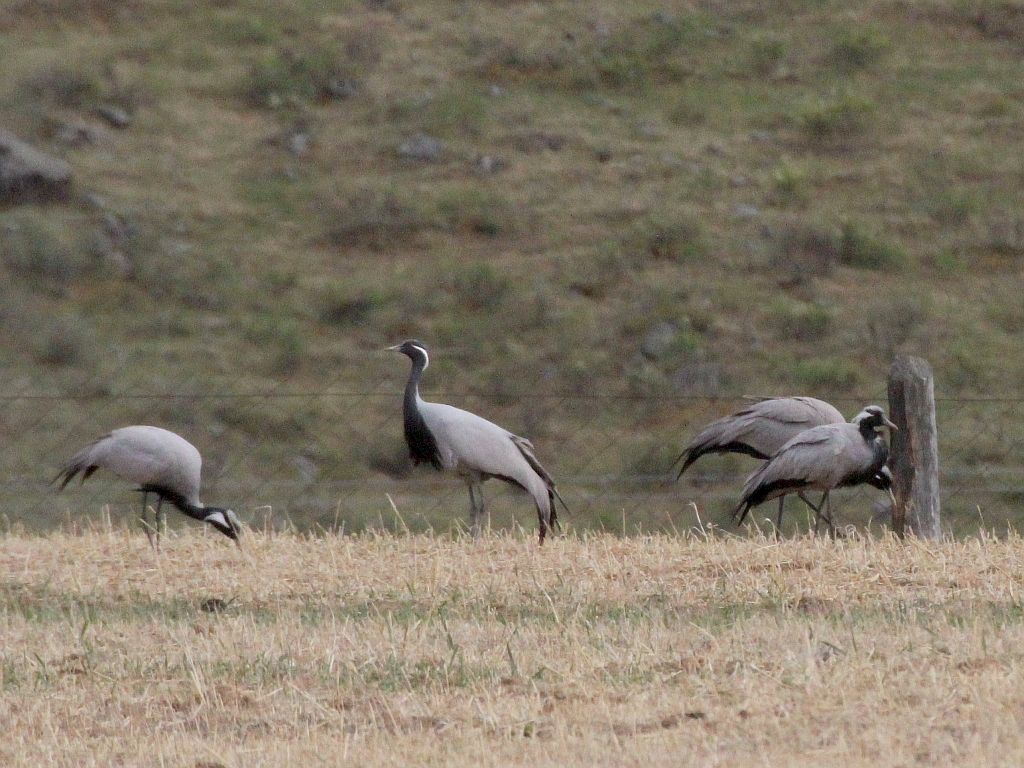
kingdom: Animalia
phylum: Chordata
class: Aves
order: Gruiformes
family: Gruidae
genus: Anthropoides
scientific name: Anthropoides virgo
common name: Demoiselle crane
